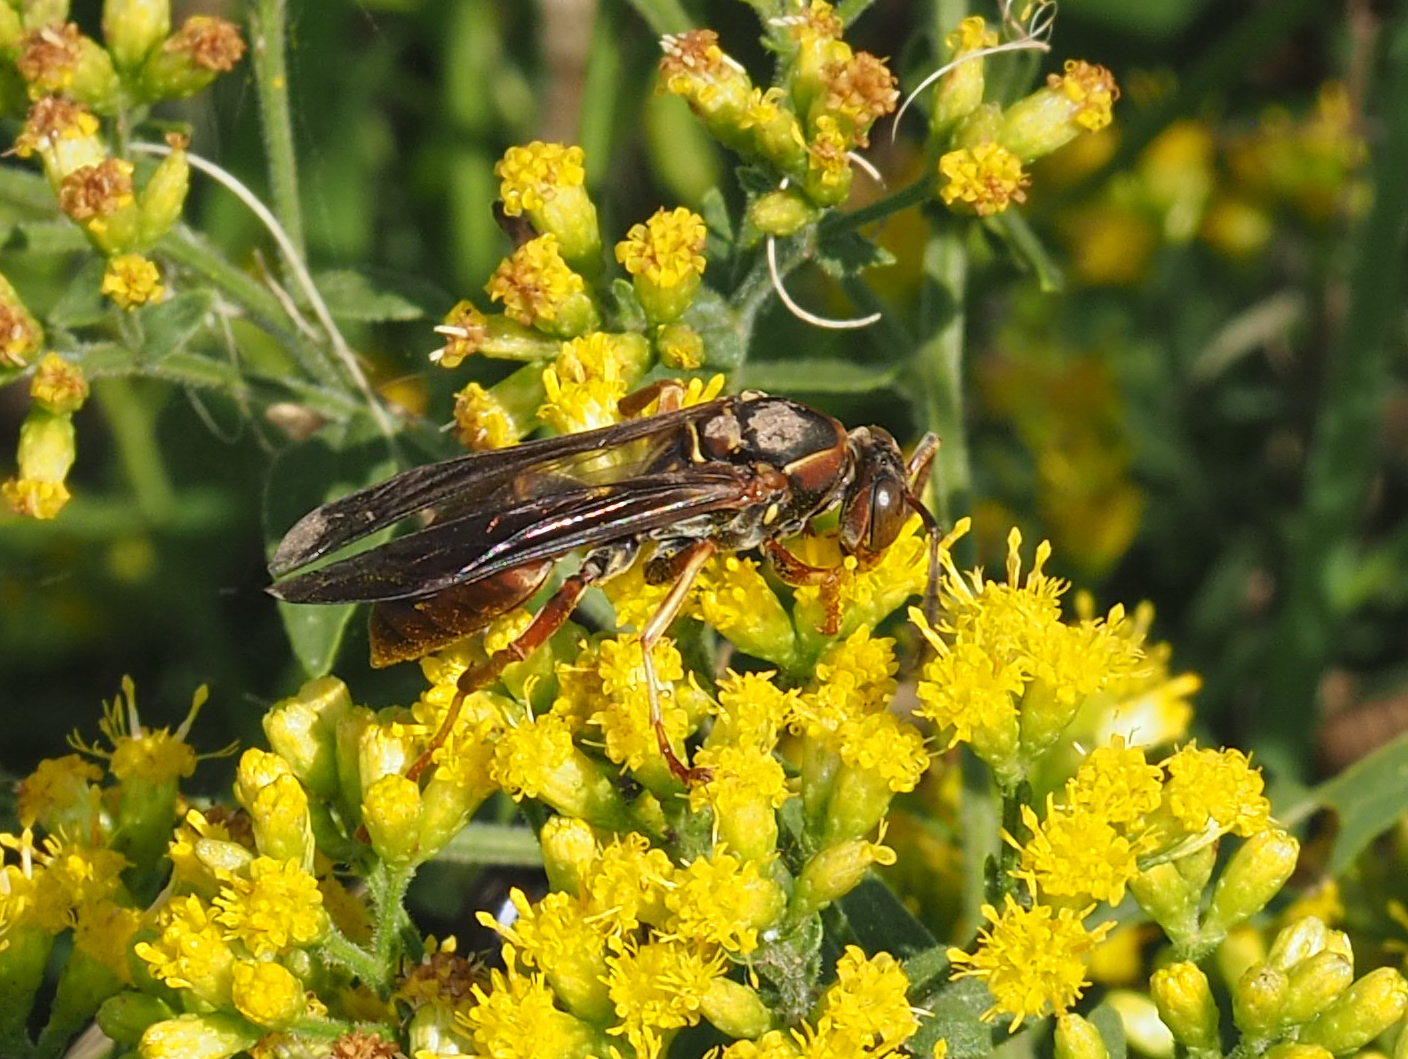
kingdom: Animalia
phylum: Arthropoda
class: Insecta
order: Hymenoptera
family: Eumenidae
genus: Polistes
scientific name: Polistes metricus
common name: Metric paper wasp
